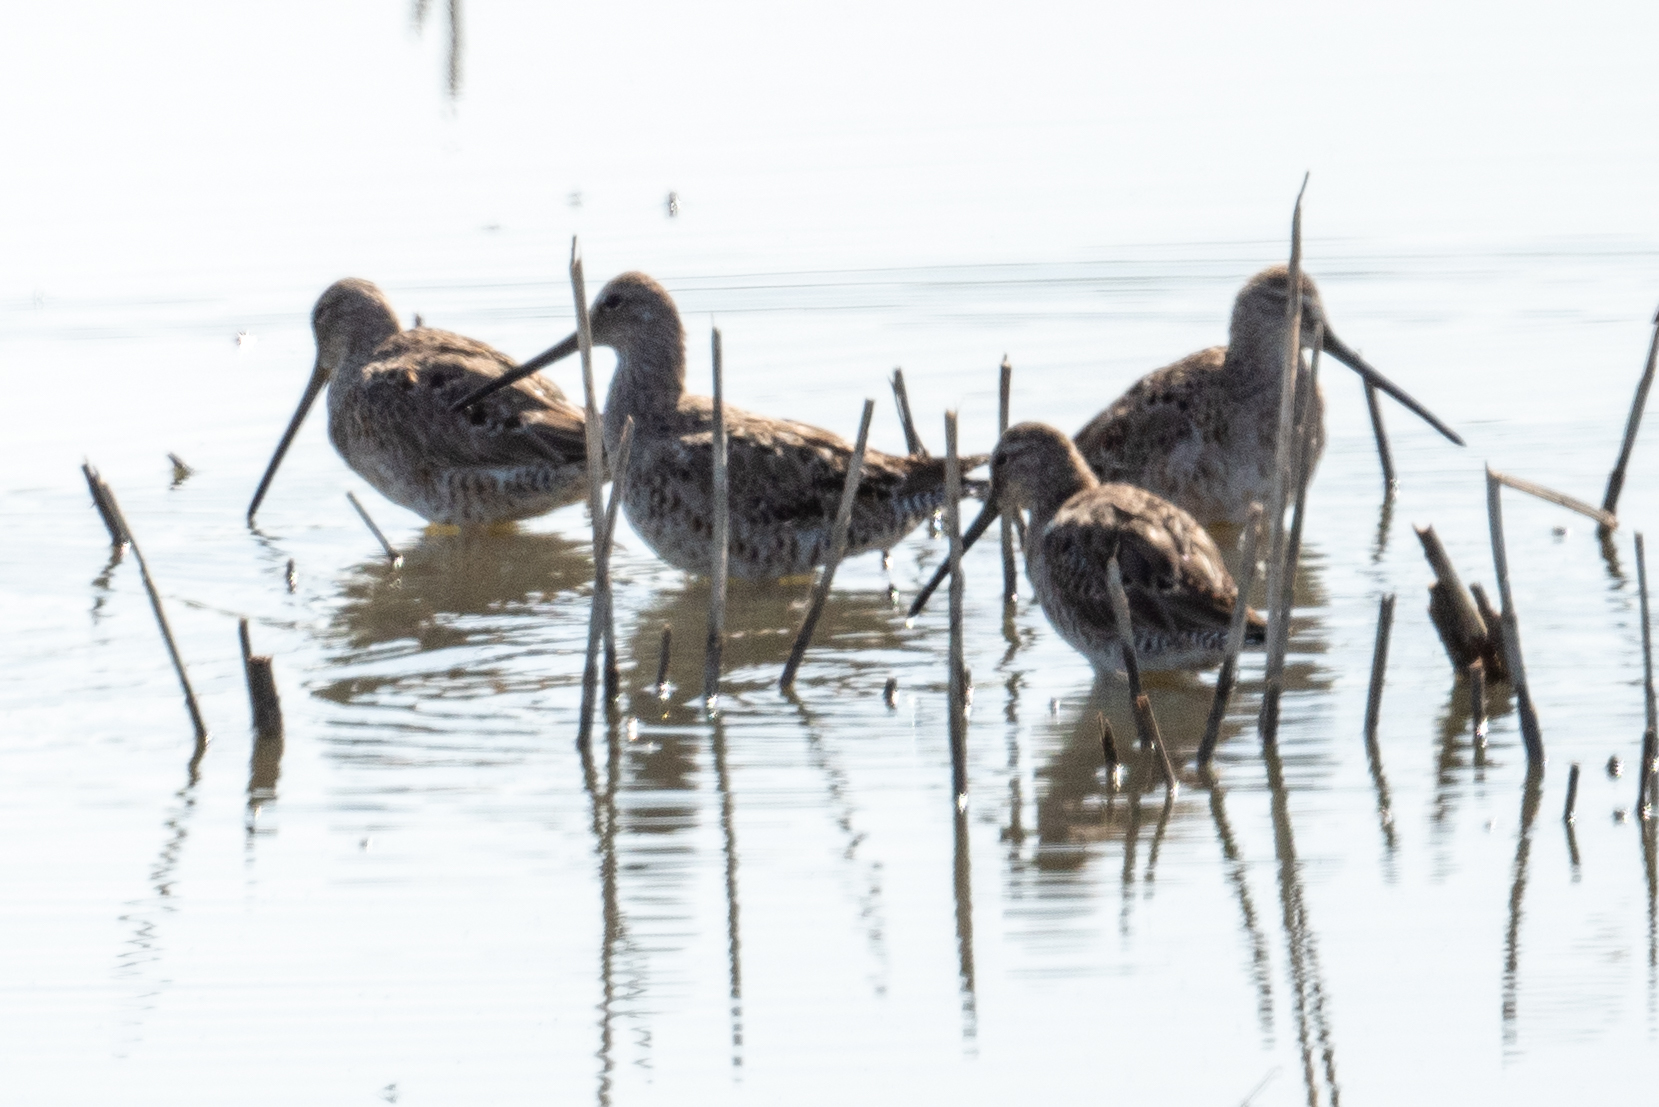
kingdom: Animalia
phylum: Chordata
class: Aves
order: Charadriiformes
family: Scolopacidae
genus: Limnodromus
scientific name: Limnodromus scolopaceus
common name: Long-billed dowitcher
